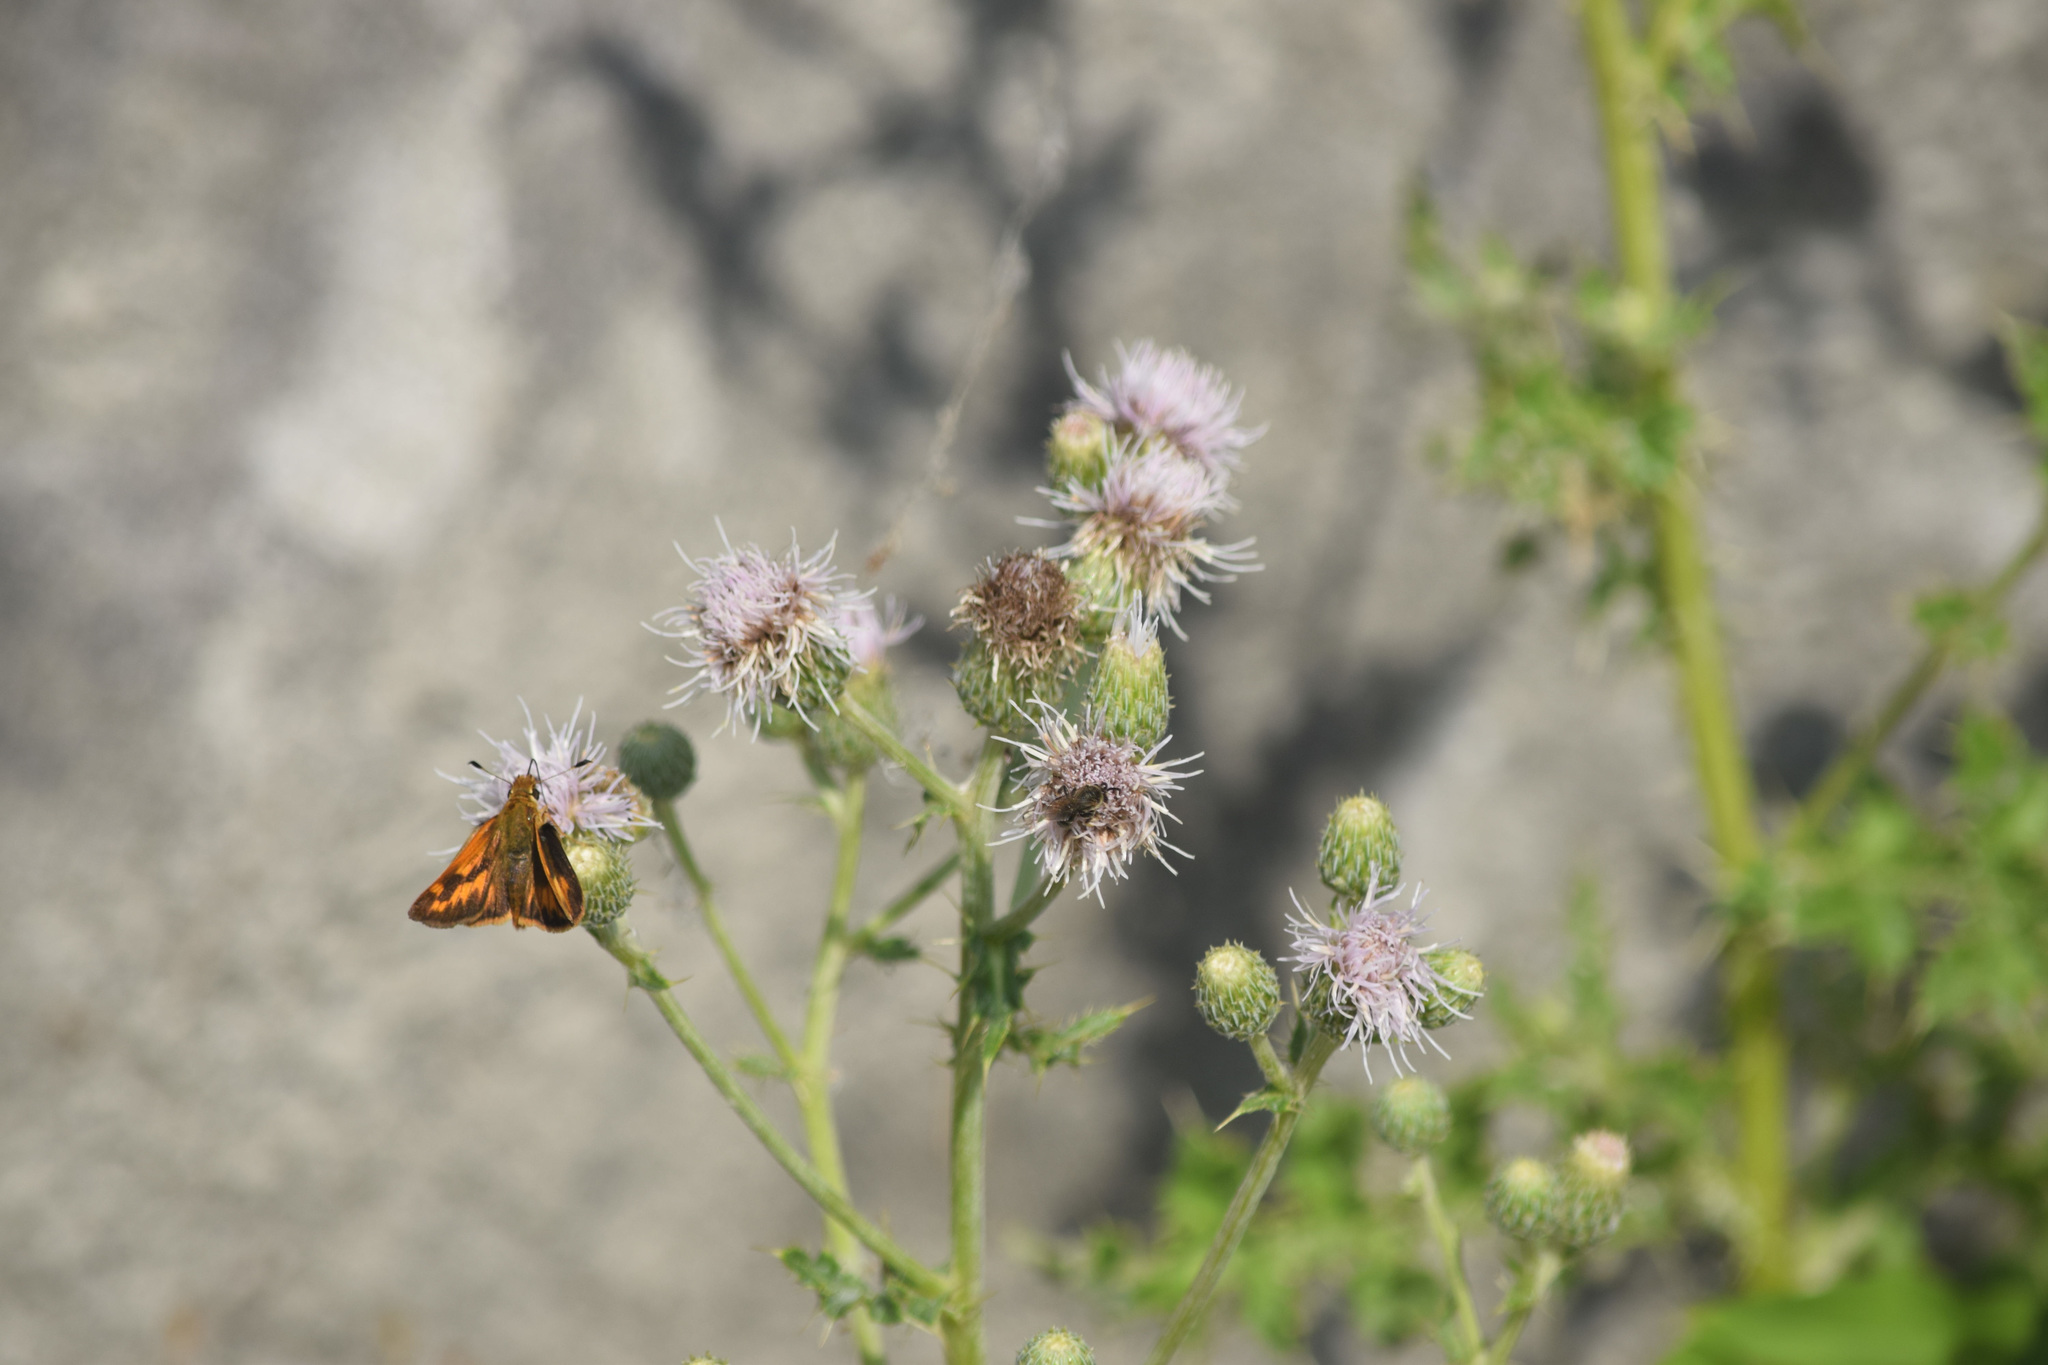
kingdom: Plantae
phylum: Tracheophyta
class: Magnoliopsida
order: Asterales
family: Asteraceae
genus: Cirsium
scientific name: Cirsium arvense
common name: Creeping thistle
